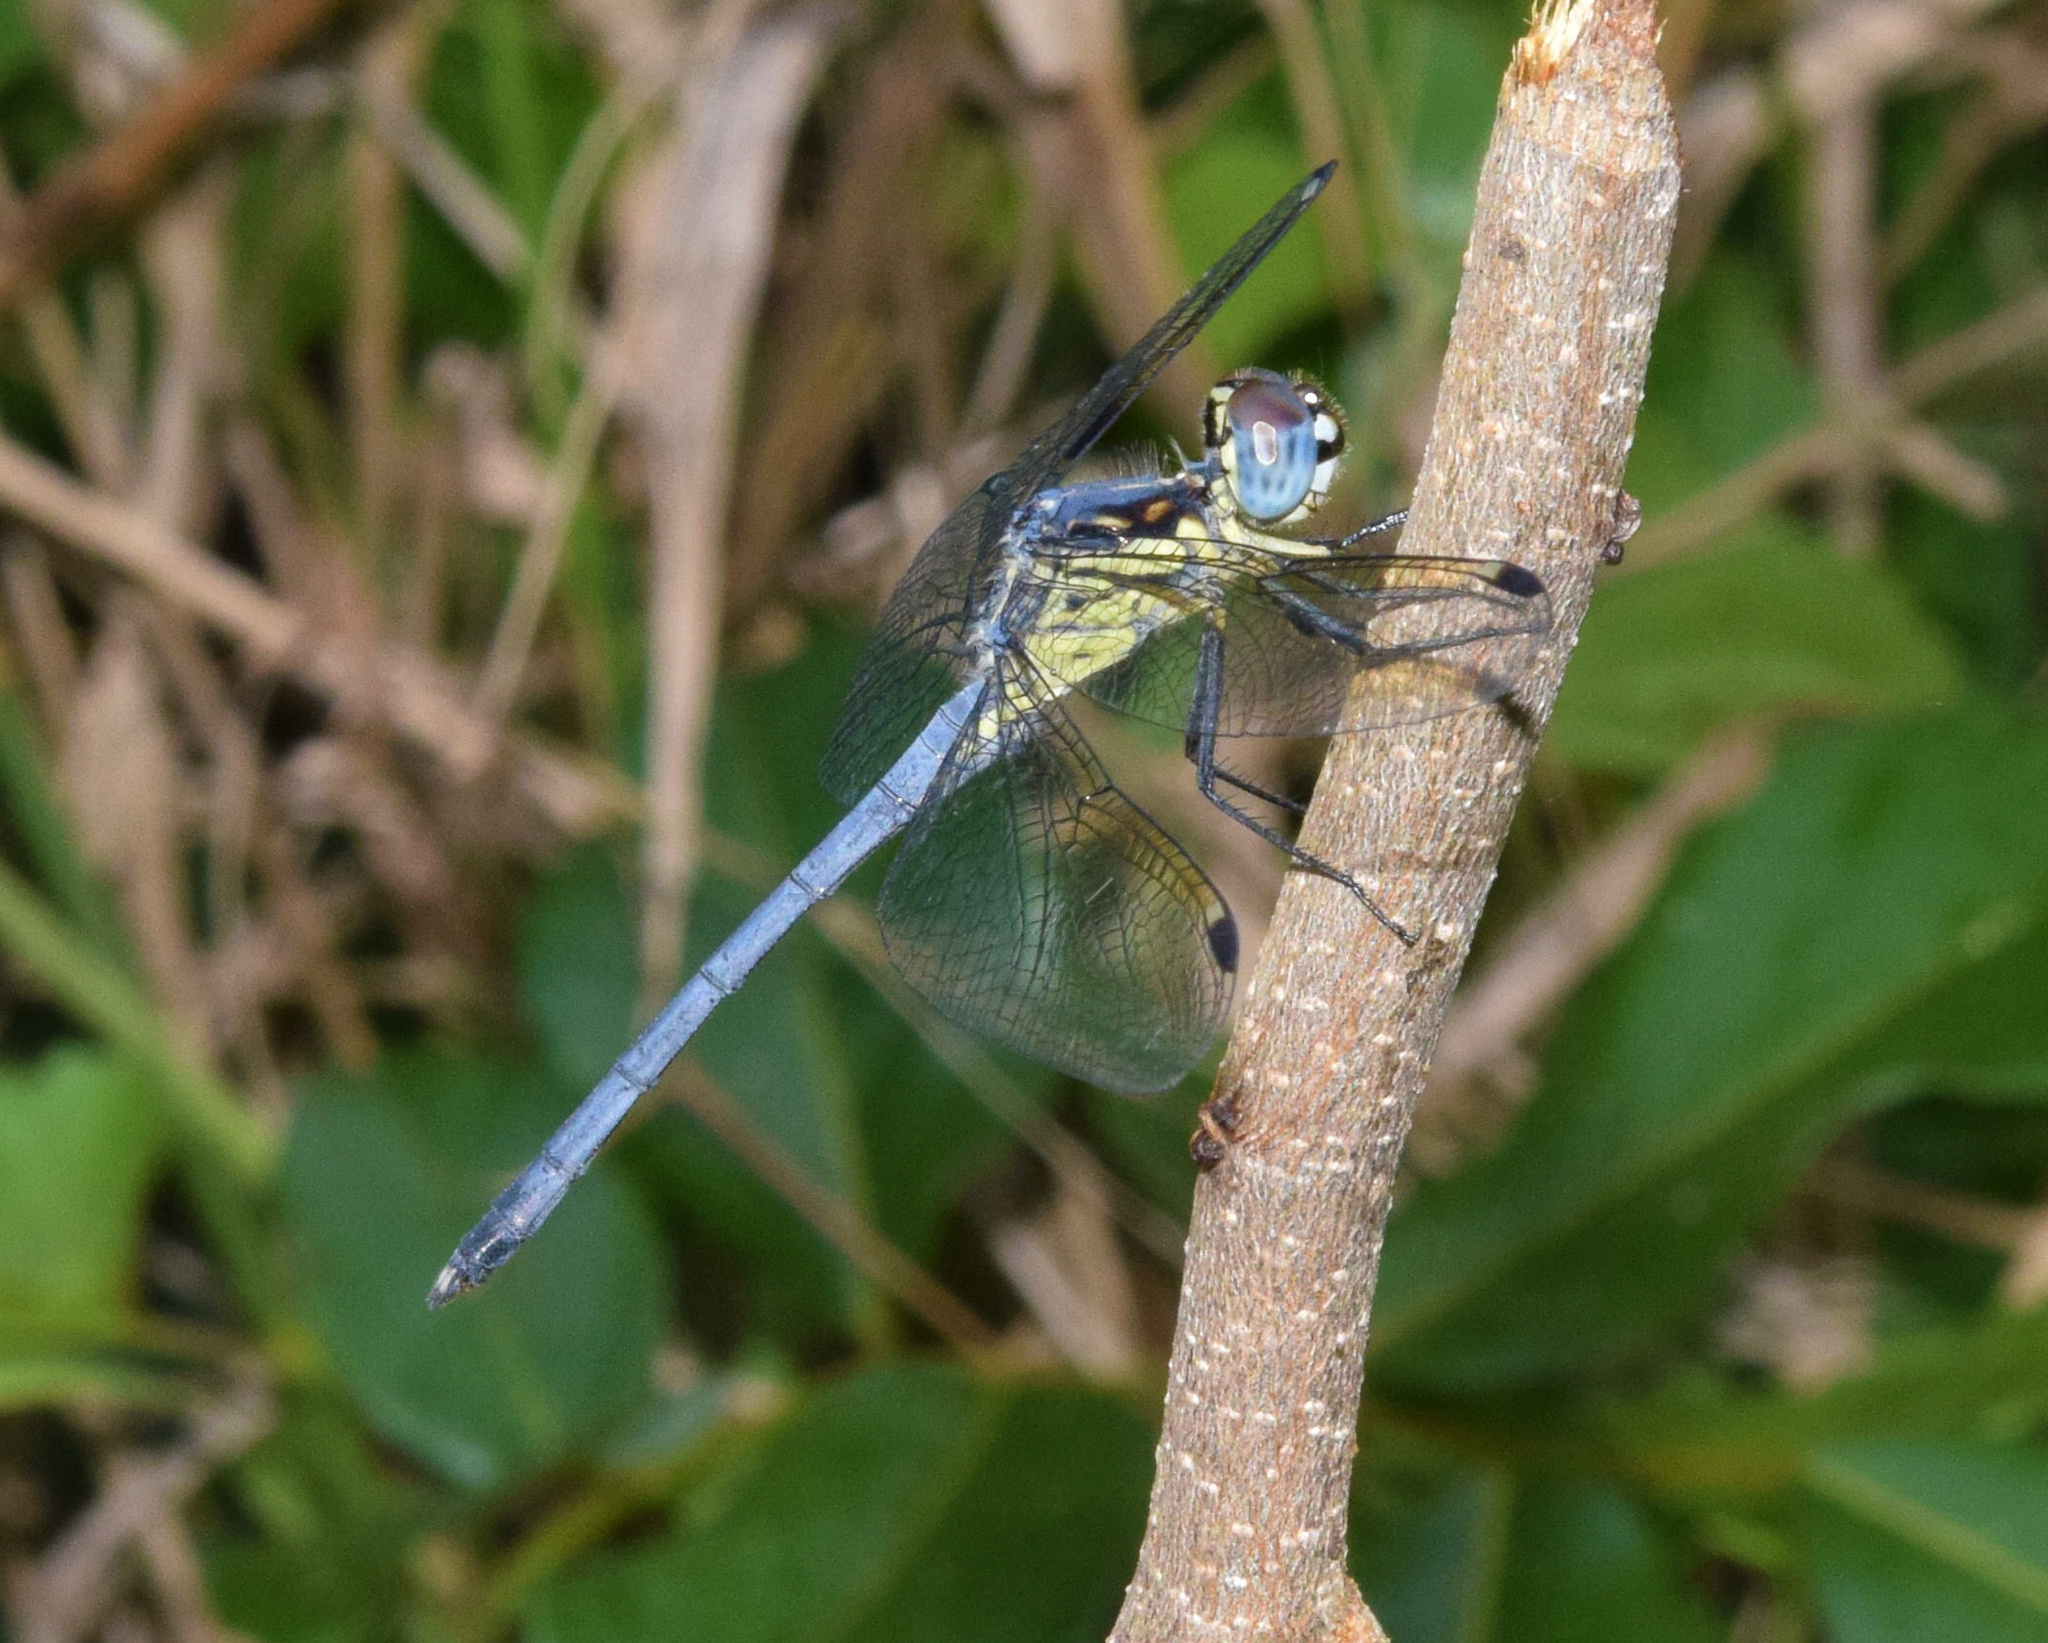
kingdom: Animalia
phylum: Arthropoda
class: Insecta
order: Odonata
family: Libellulidae
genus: Hemistigma
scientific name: Hemistigma albipunctum
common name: African pied-spot
